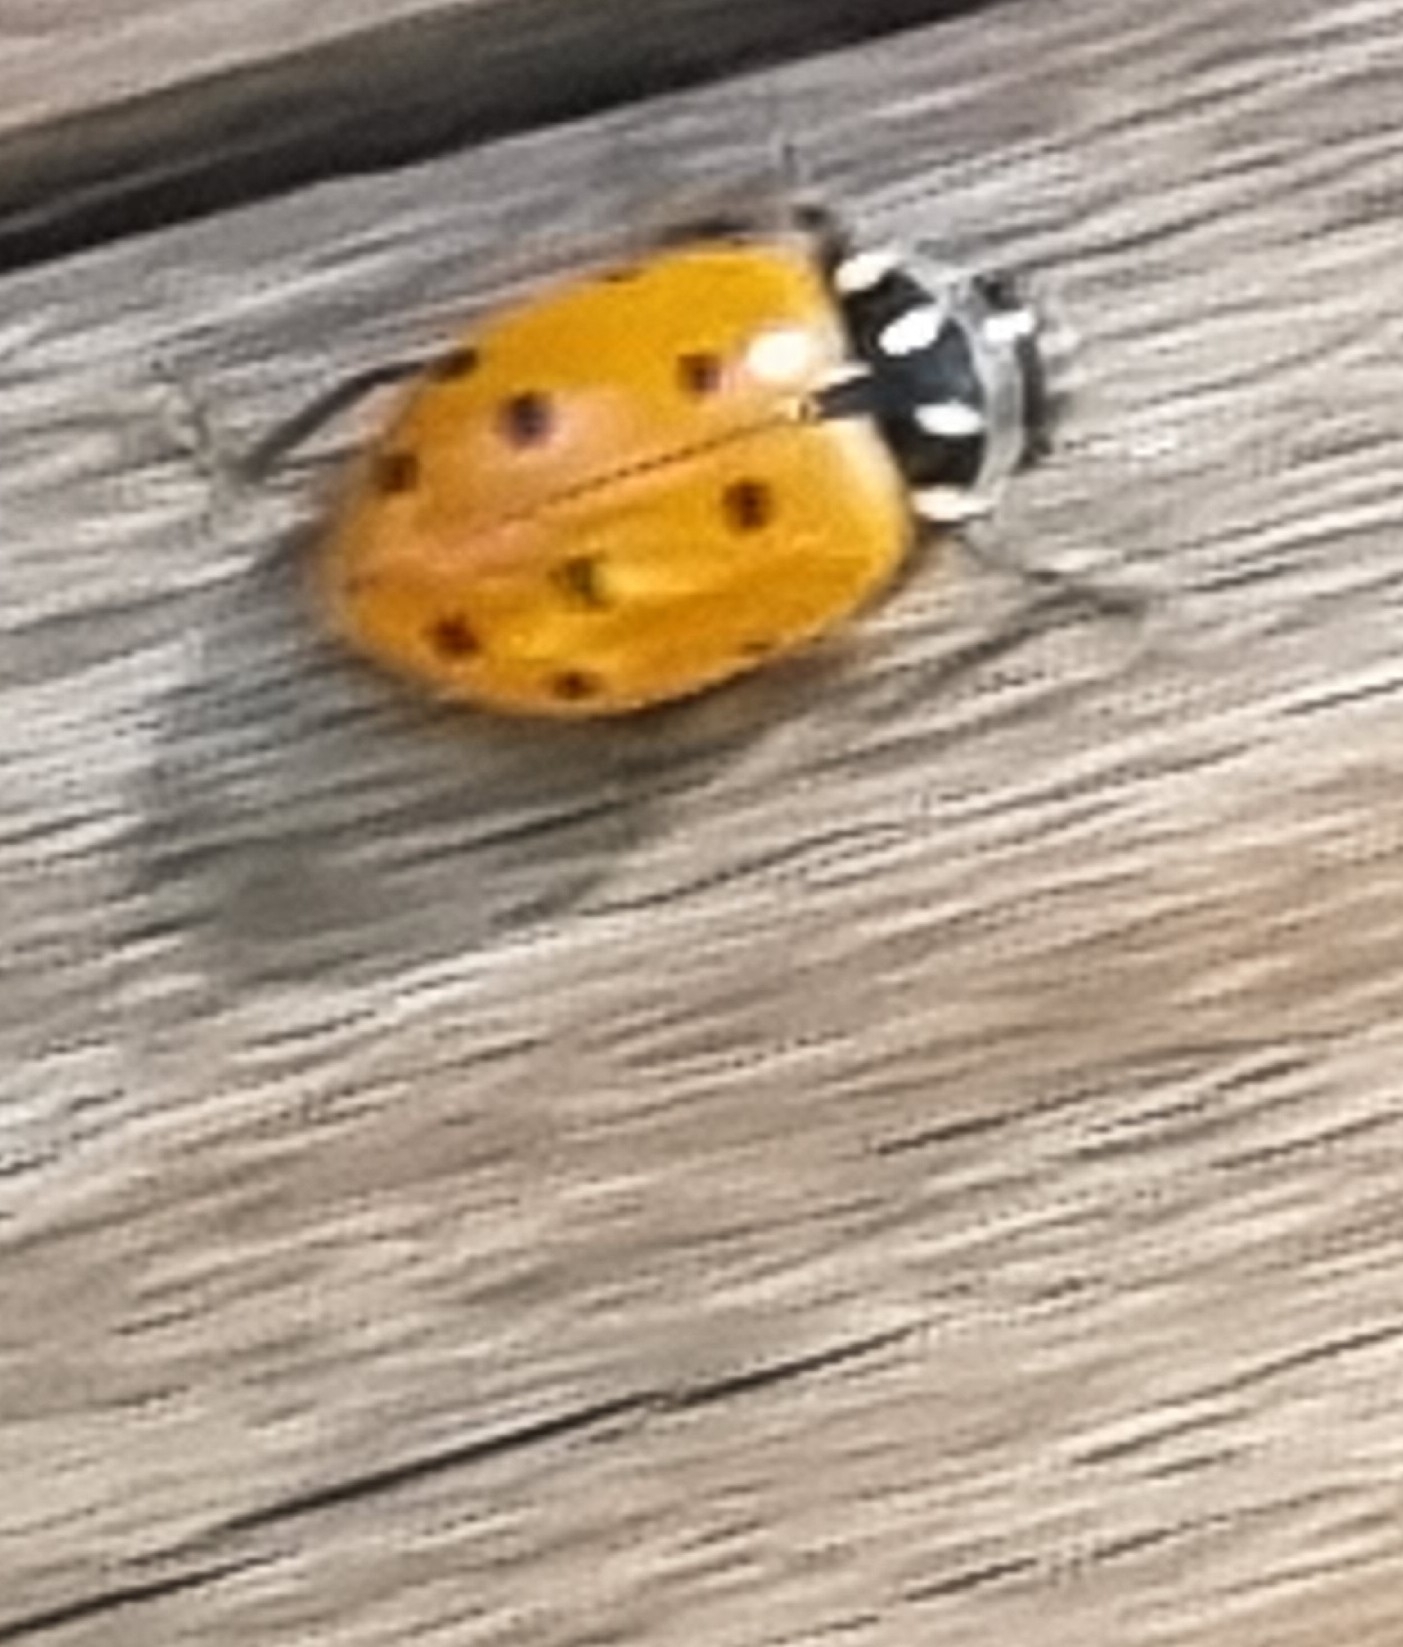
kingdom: Animalia
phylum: Arthropoda
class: Insecta
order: Coleoptera
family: Coccinellidae
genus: Hippodamia
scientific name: Hippodamia convergens
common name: Convergent lady beetle
